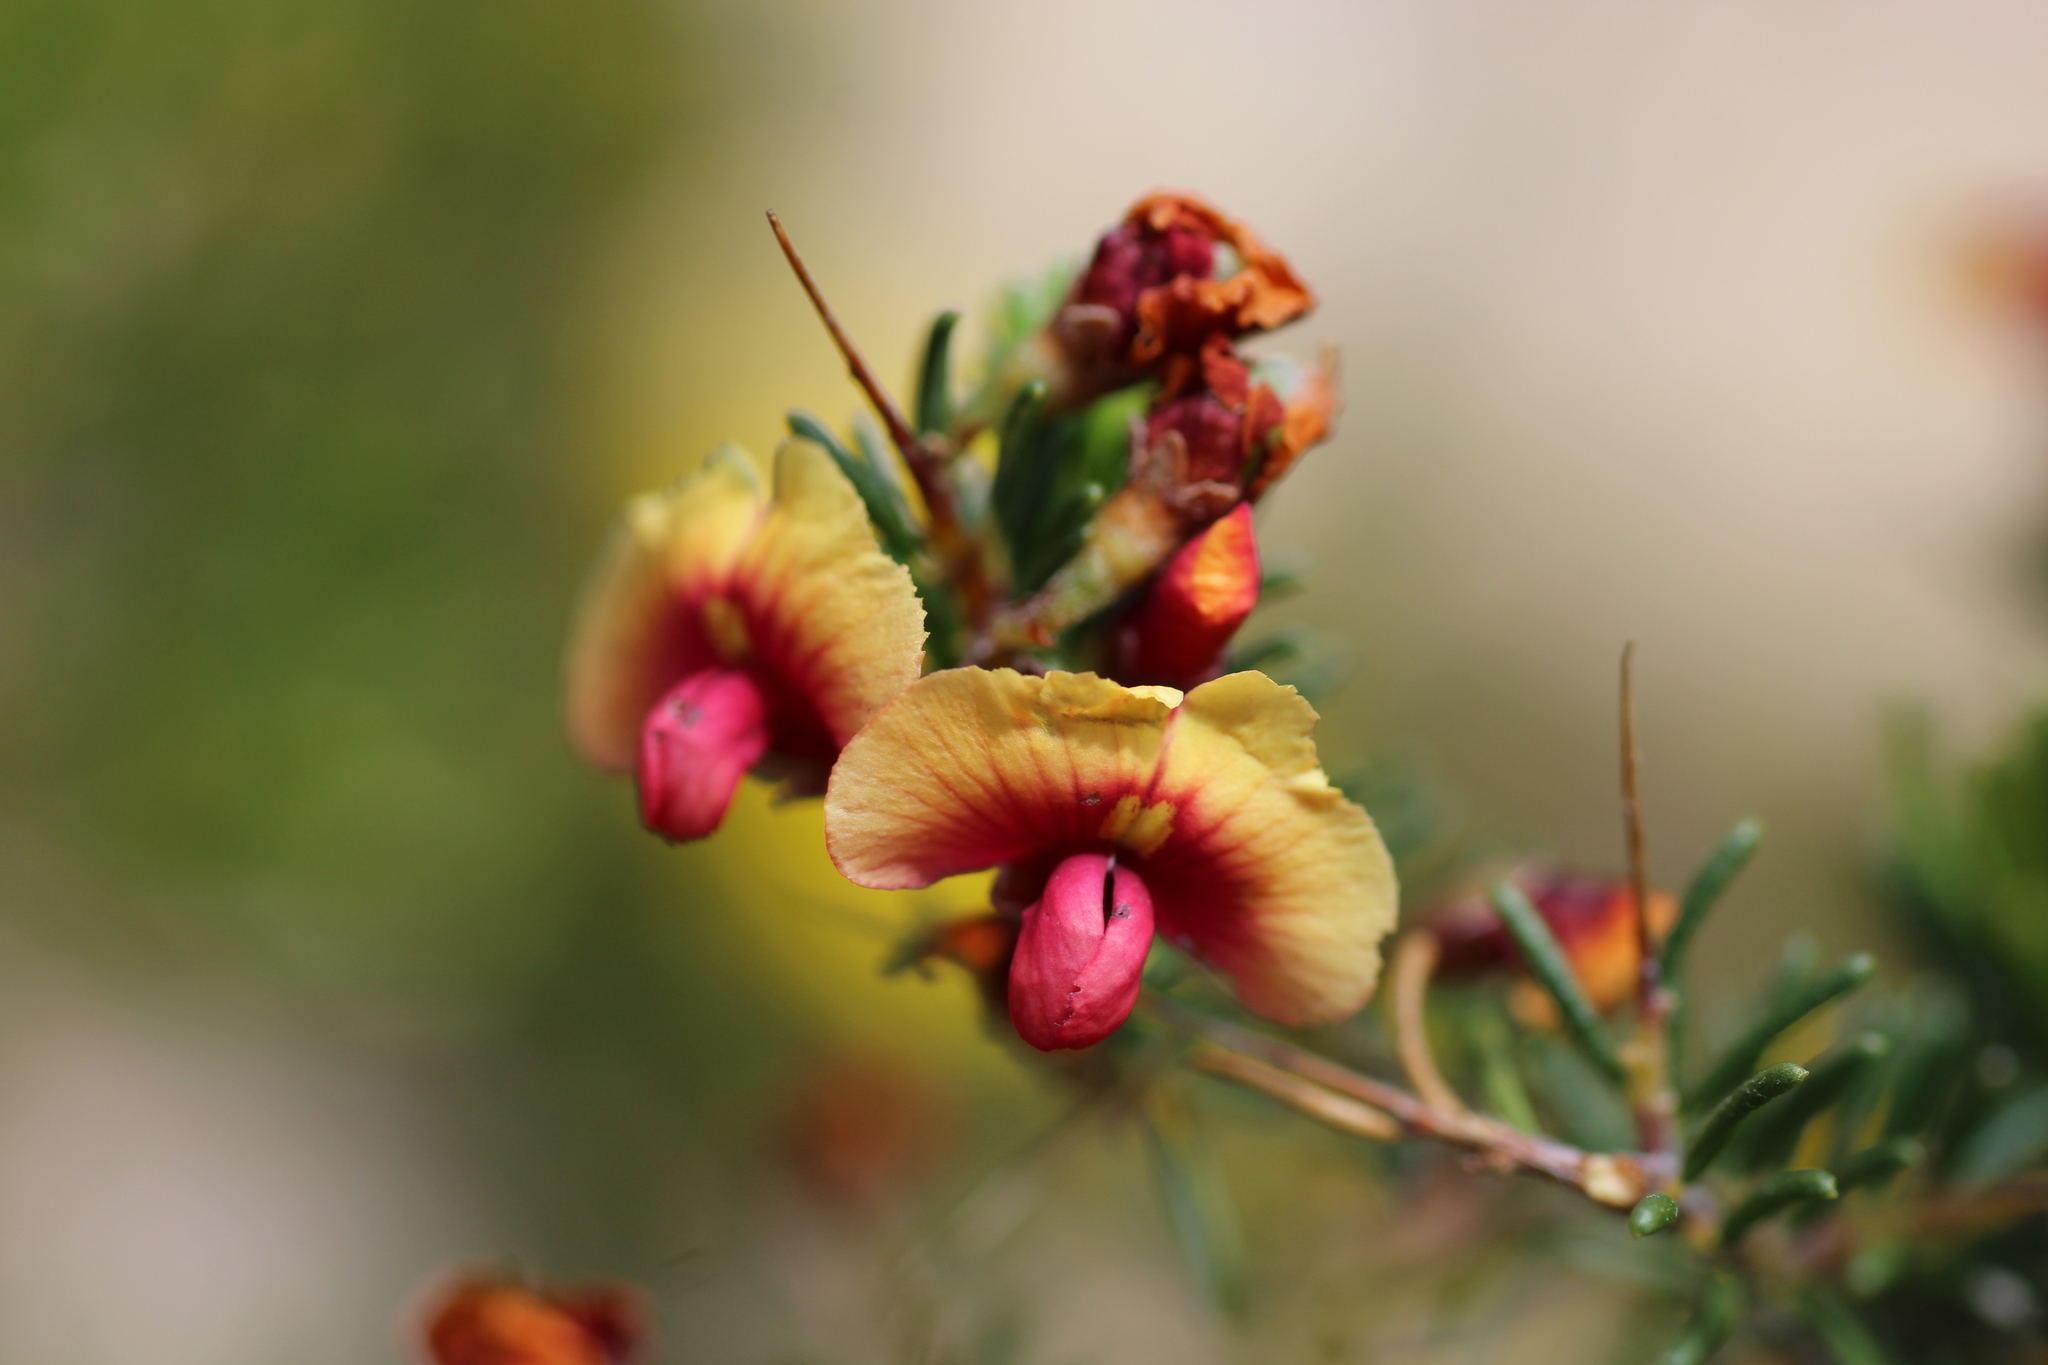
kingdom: Plantae
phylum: Tracheophyta
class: Magnoliopsida
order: Fabales
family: Fabaceae
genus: Dillwynia
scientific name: Dillwynia laxiflora
